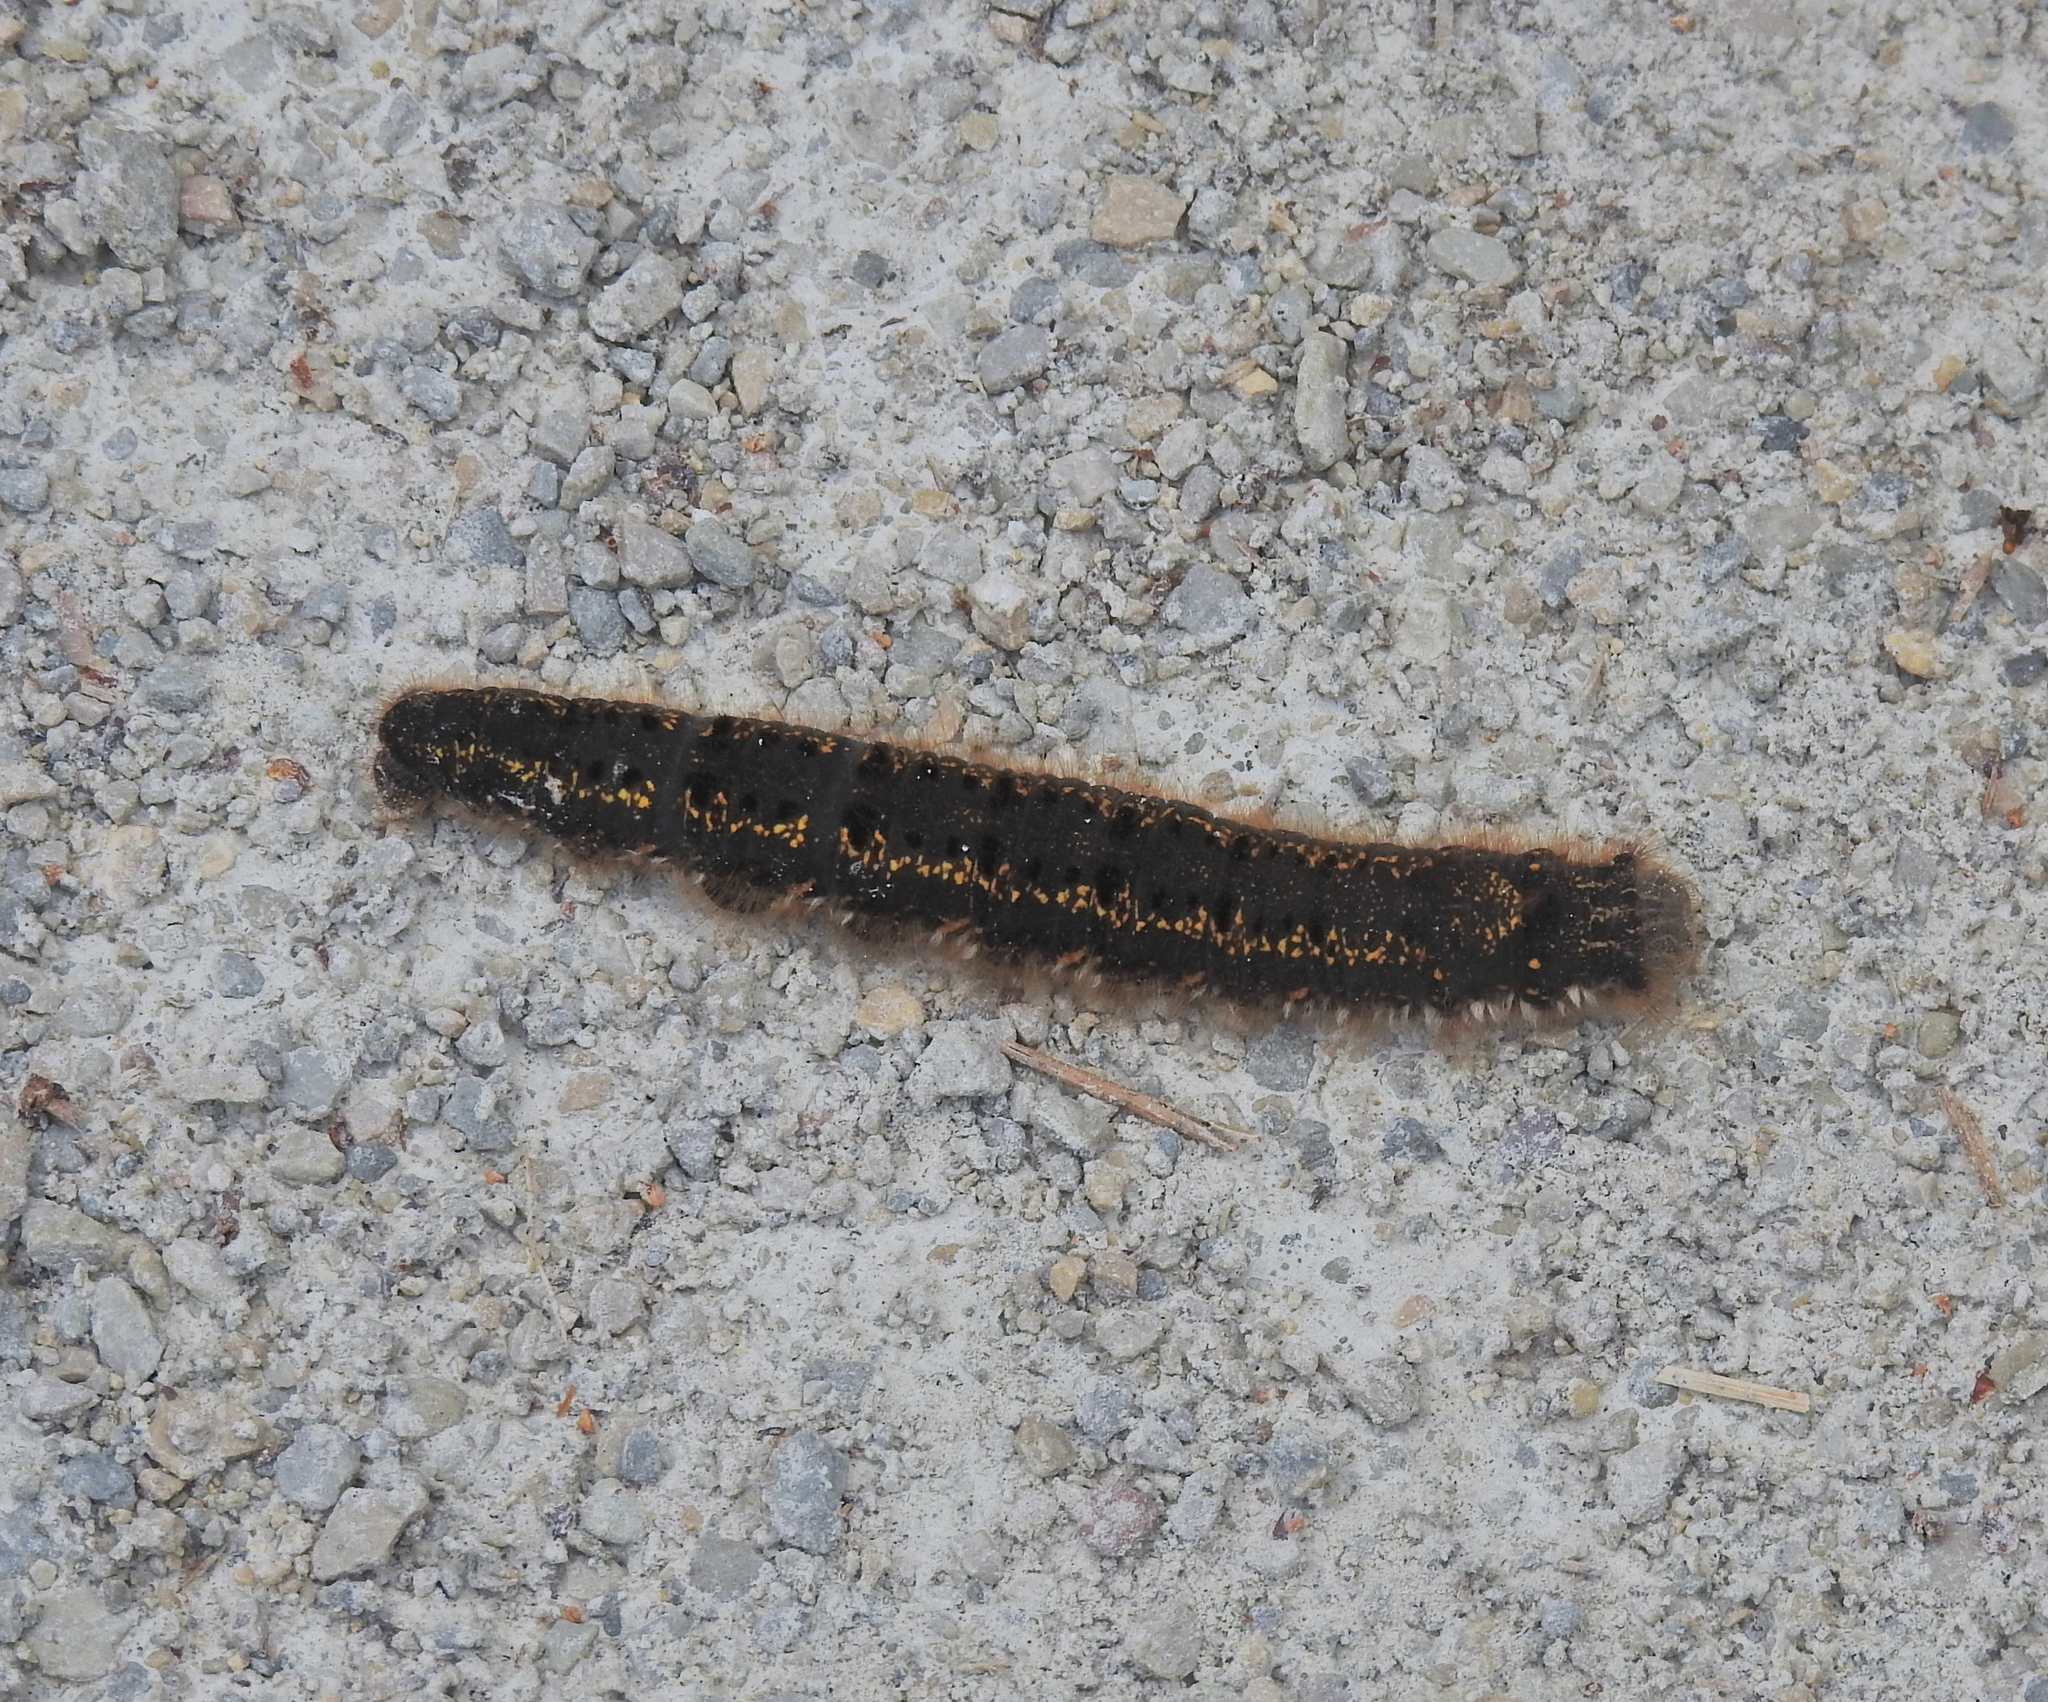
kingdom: Animalia
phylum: Arthropoda
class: Insecta
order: Lepidoptera
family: Lasiocampidae
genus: Euthrix
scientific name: Euthrix potatoria
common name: Drinker
